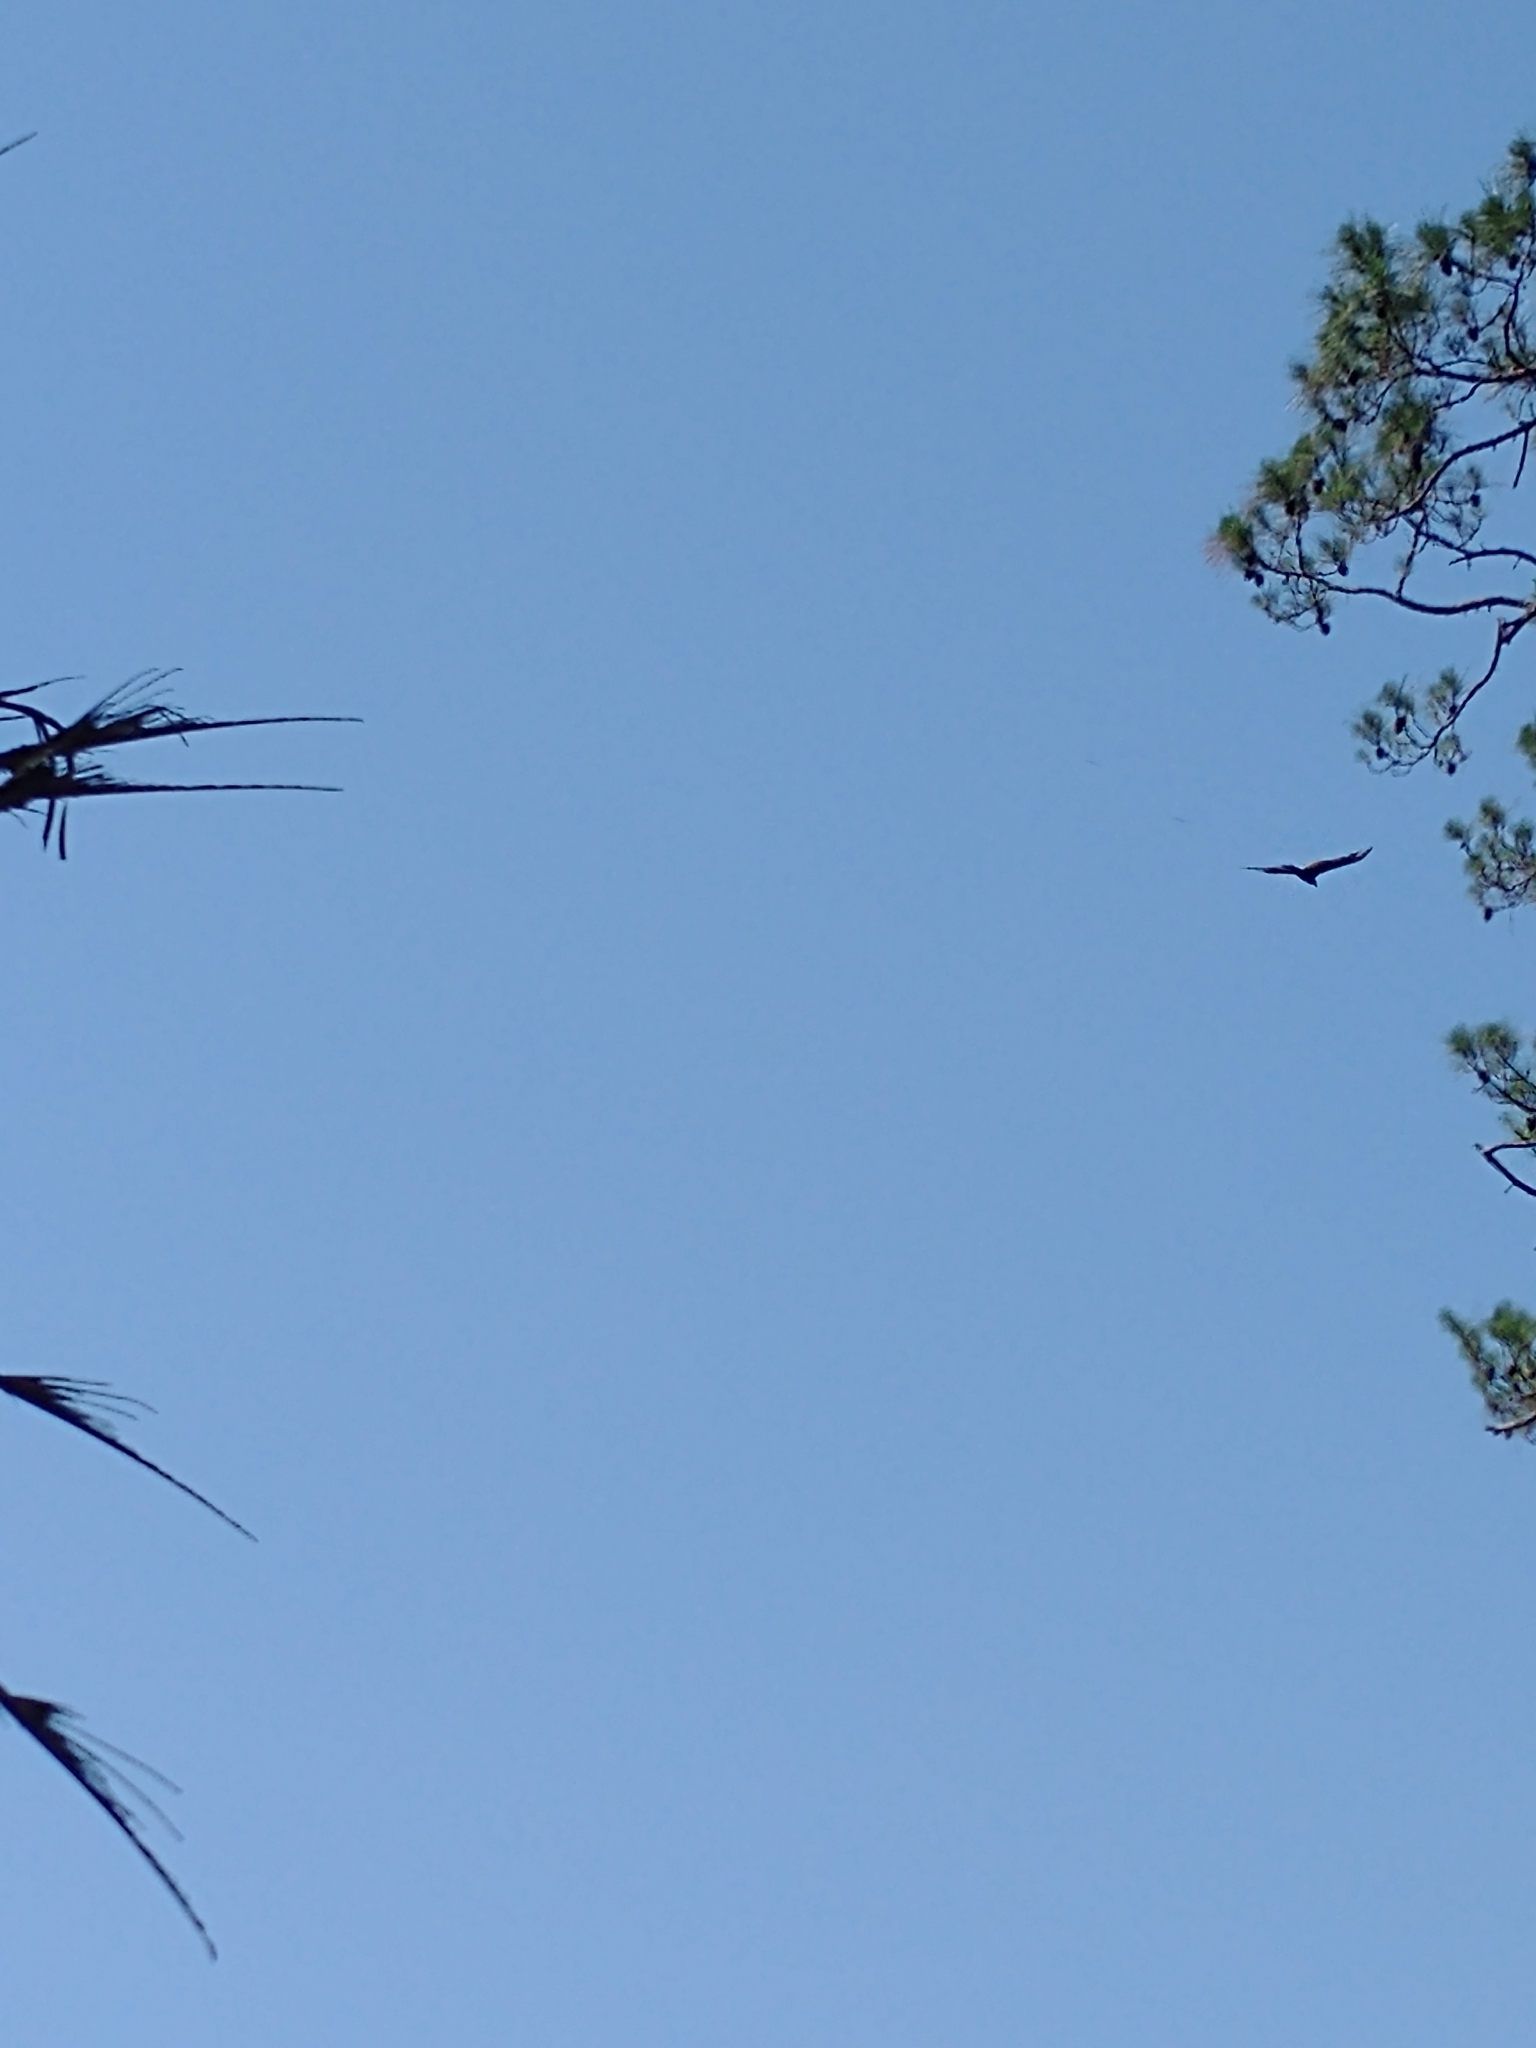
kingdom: Animalia
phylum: Chordata
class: Aves
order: Accipitriformes
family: Cathartidae
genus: Cathartes
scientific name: Cathartes aura
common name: Turkey vulture
